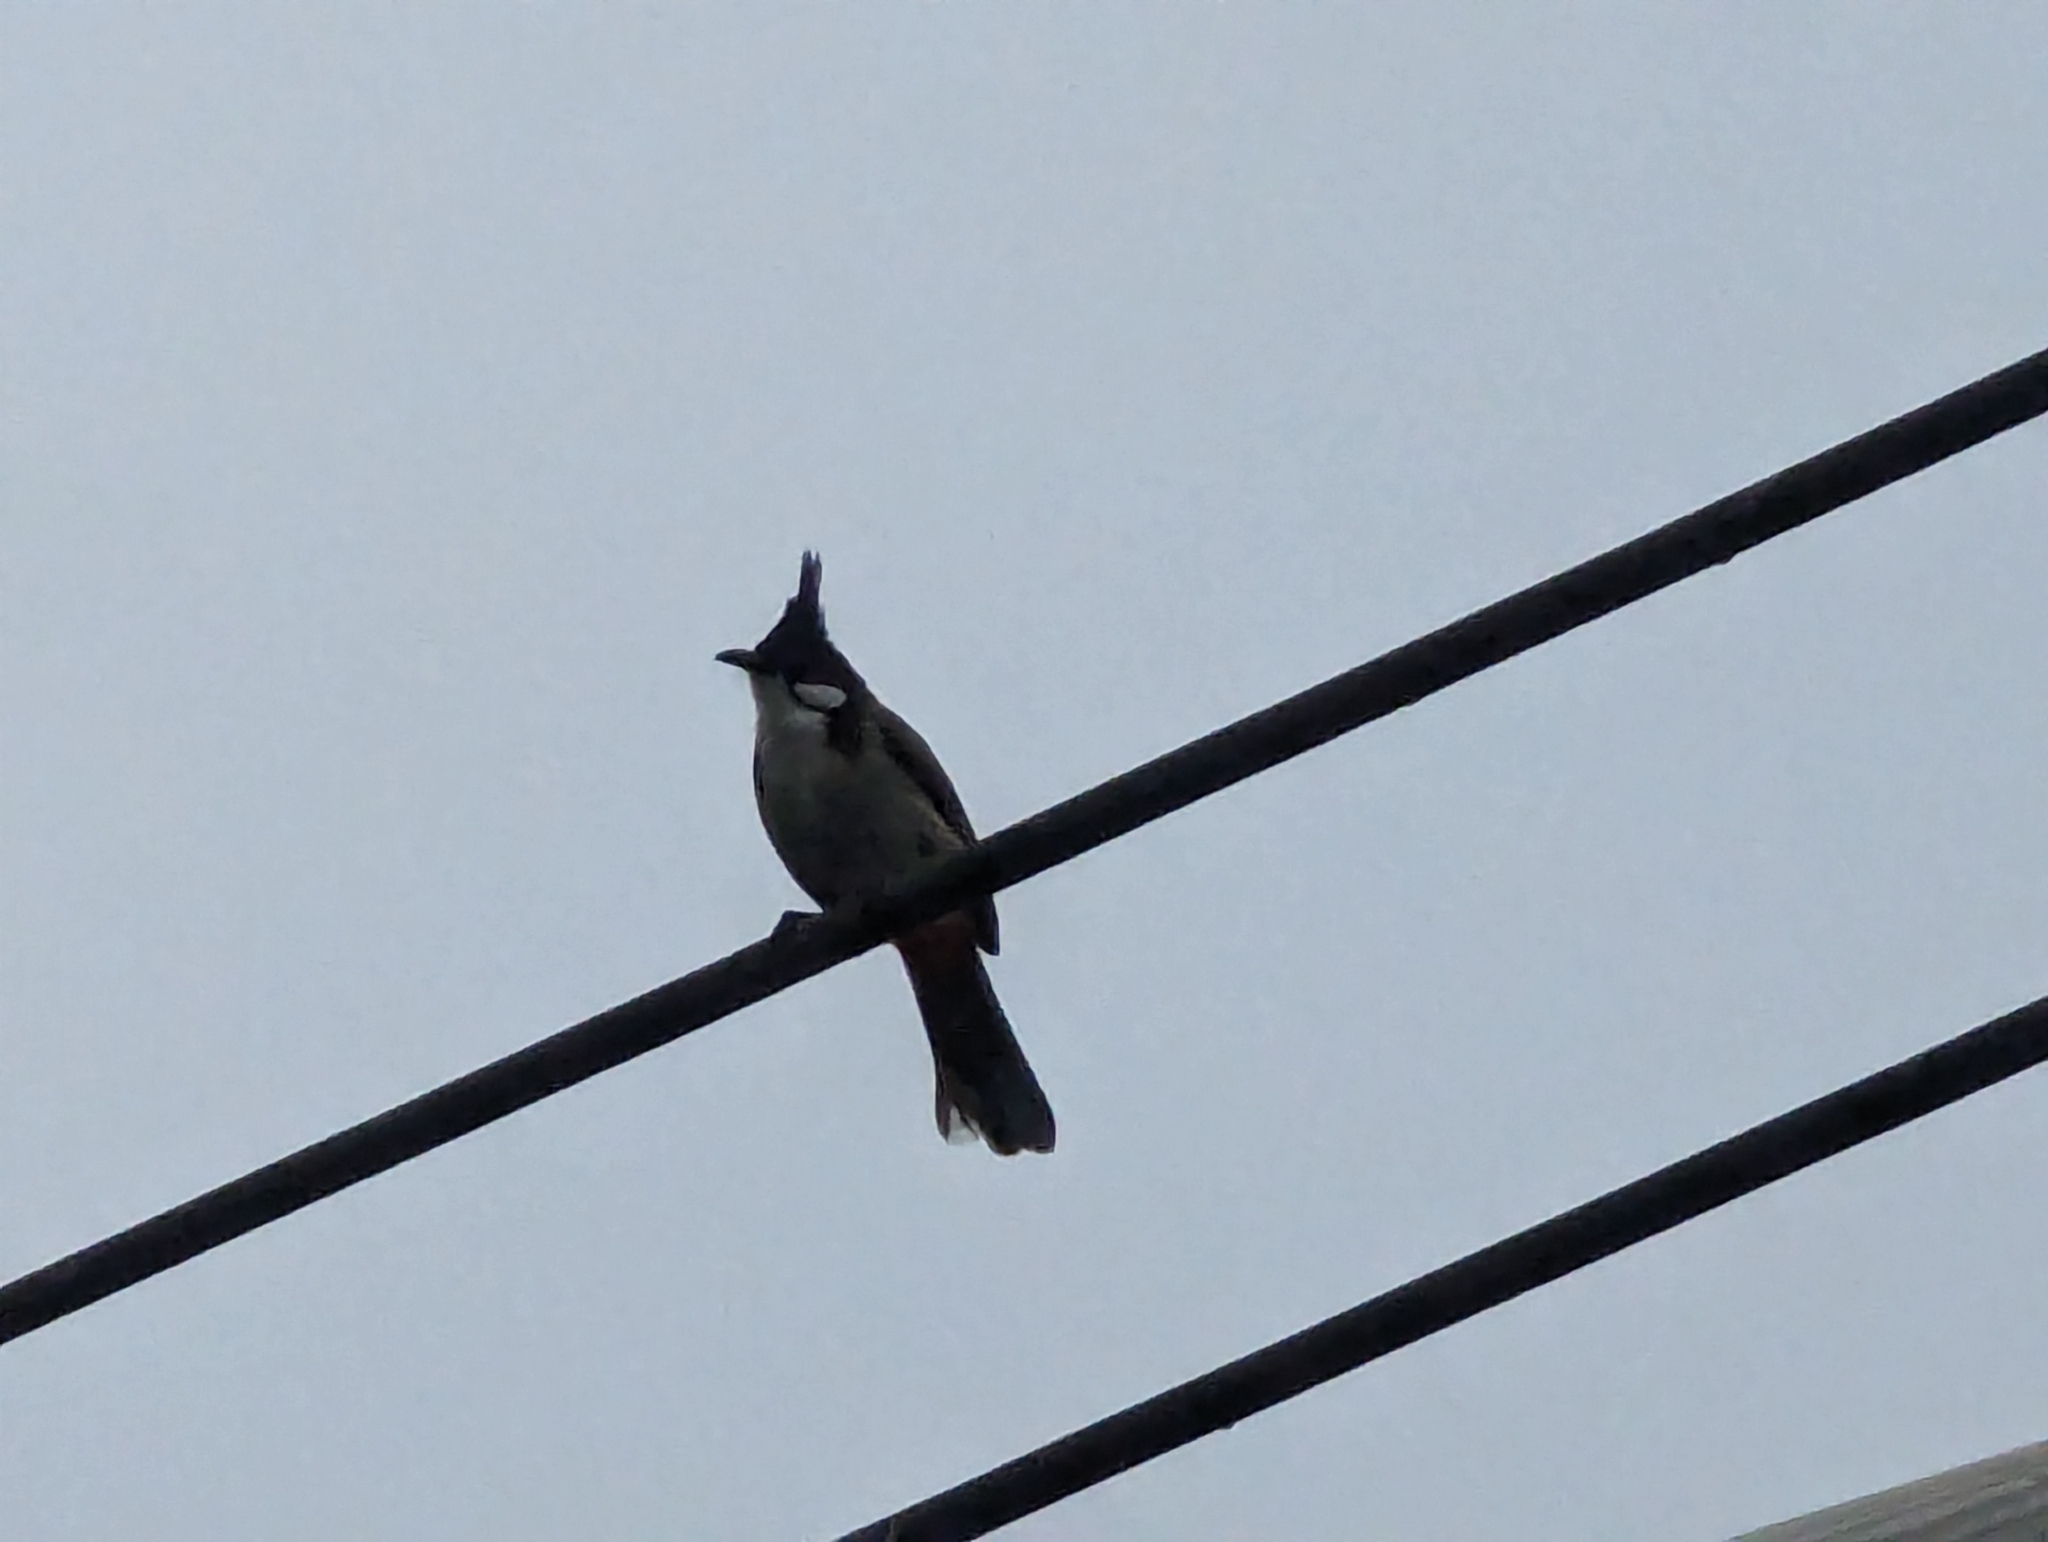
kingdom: Animalia
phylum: Chordata
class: Aves
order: Passeriformes
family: Pycnonotidae
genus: Pycnonotus
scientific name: Pycnonotus jocosus
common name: Red-whiskered bulbul
